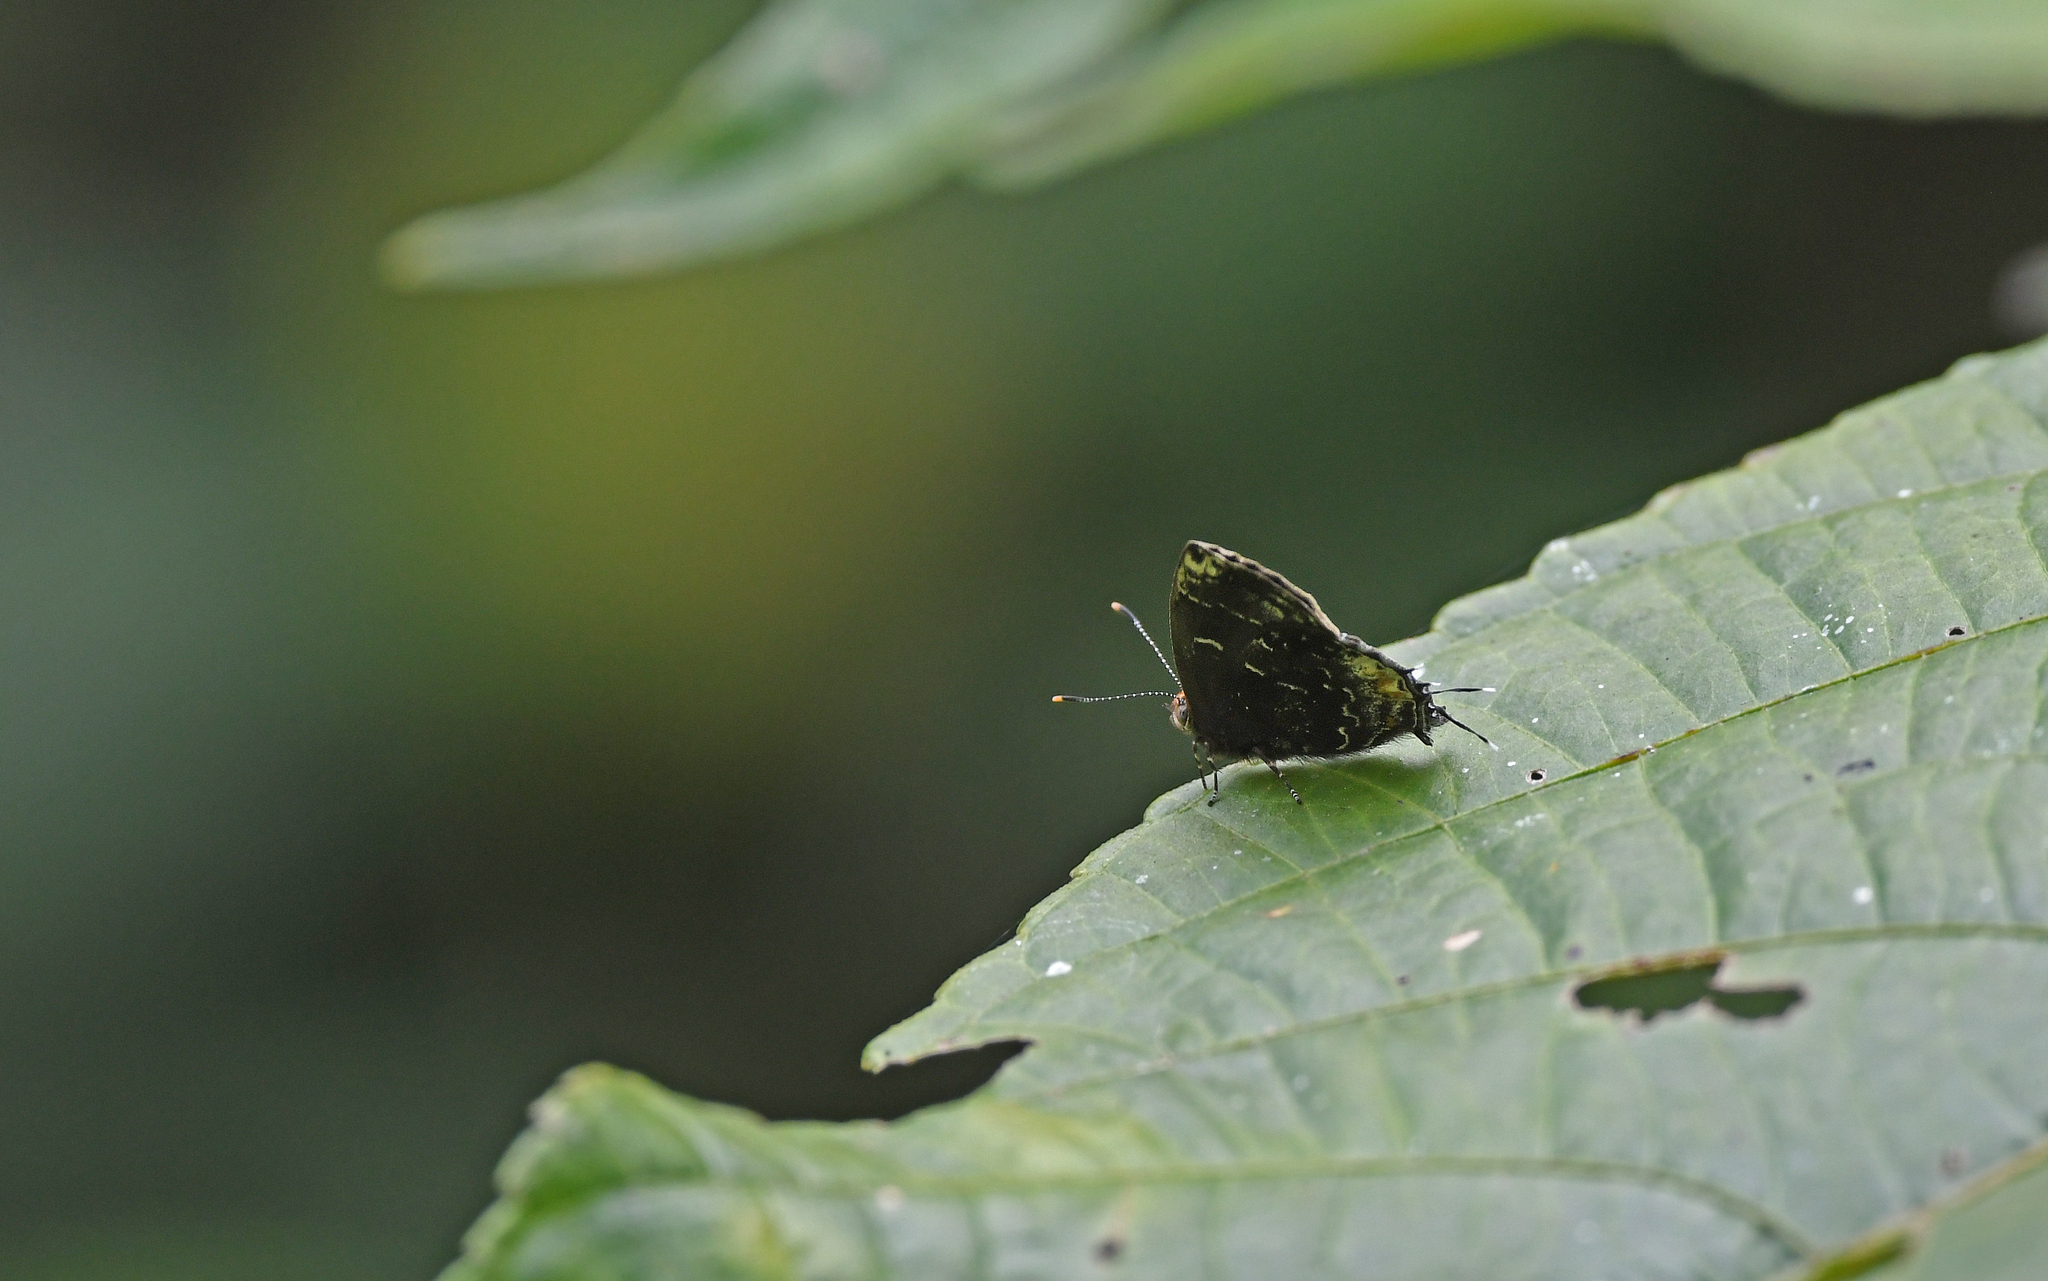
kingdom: Animalia
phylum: Arthropoda
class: Insecta
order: Lepidoptera
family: Lycaenidae
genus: Ocaria
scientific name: Ocaria ocrisia
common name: Black hairstreak
